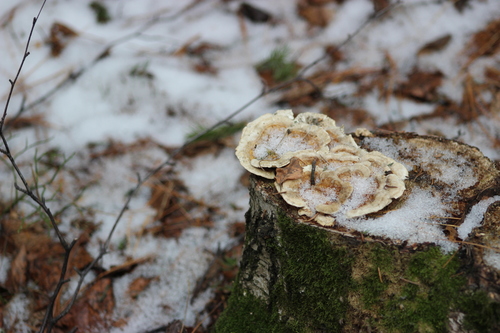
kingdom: Fungi
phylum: Basidiomycota
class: Agaricomycetes
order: Polyporales
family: Polyporaceae
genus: Trametes
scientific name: Trametes ochracea
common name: Ochre bracket
